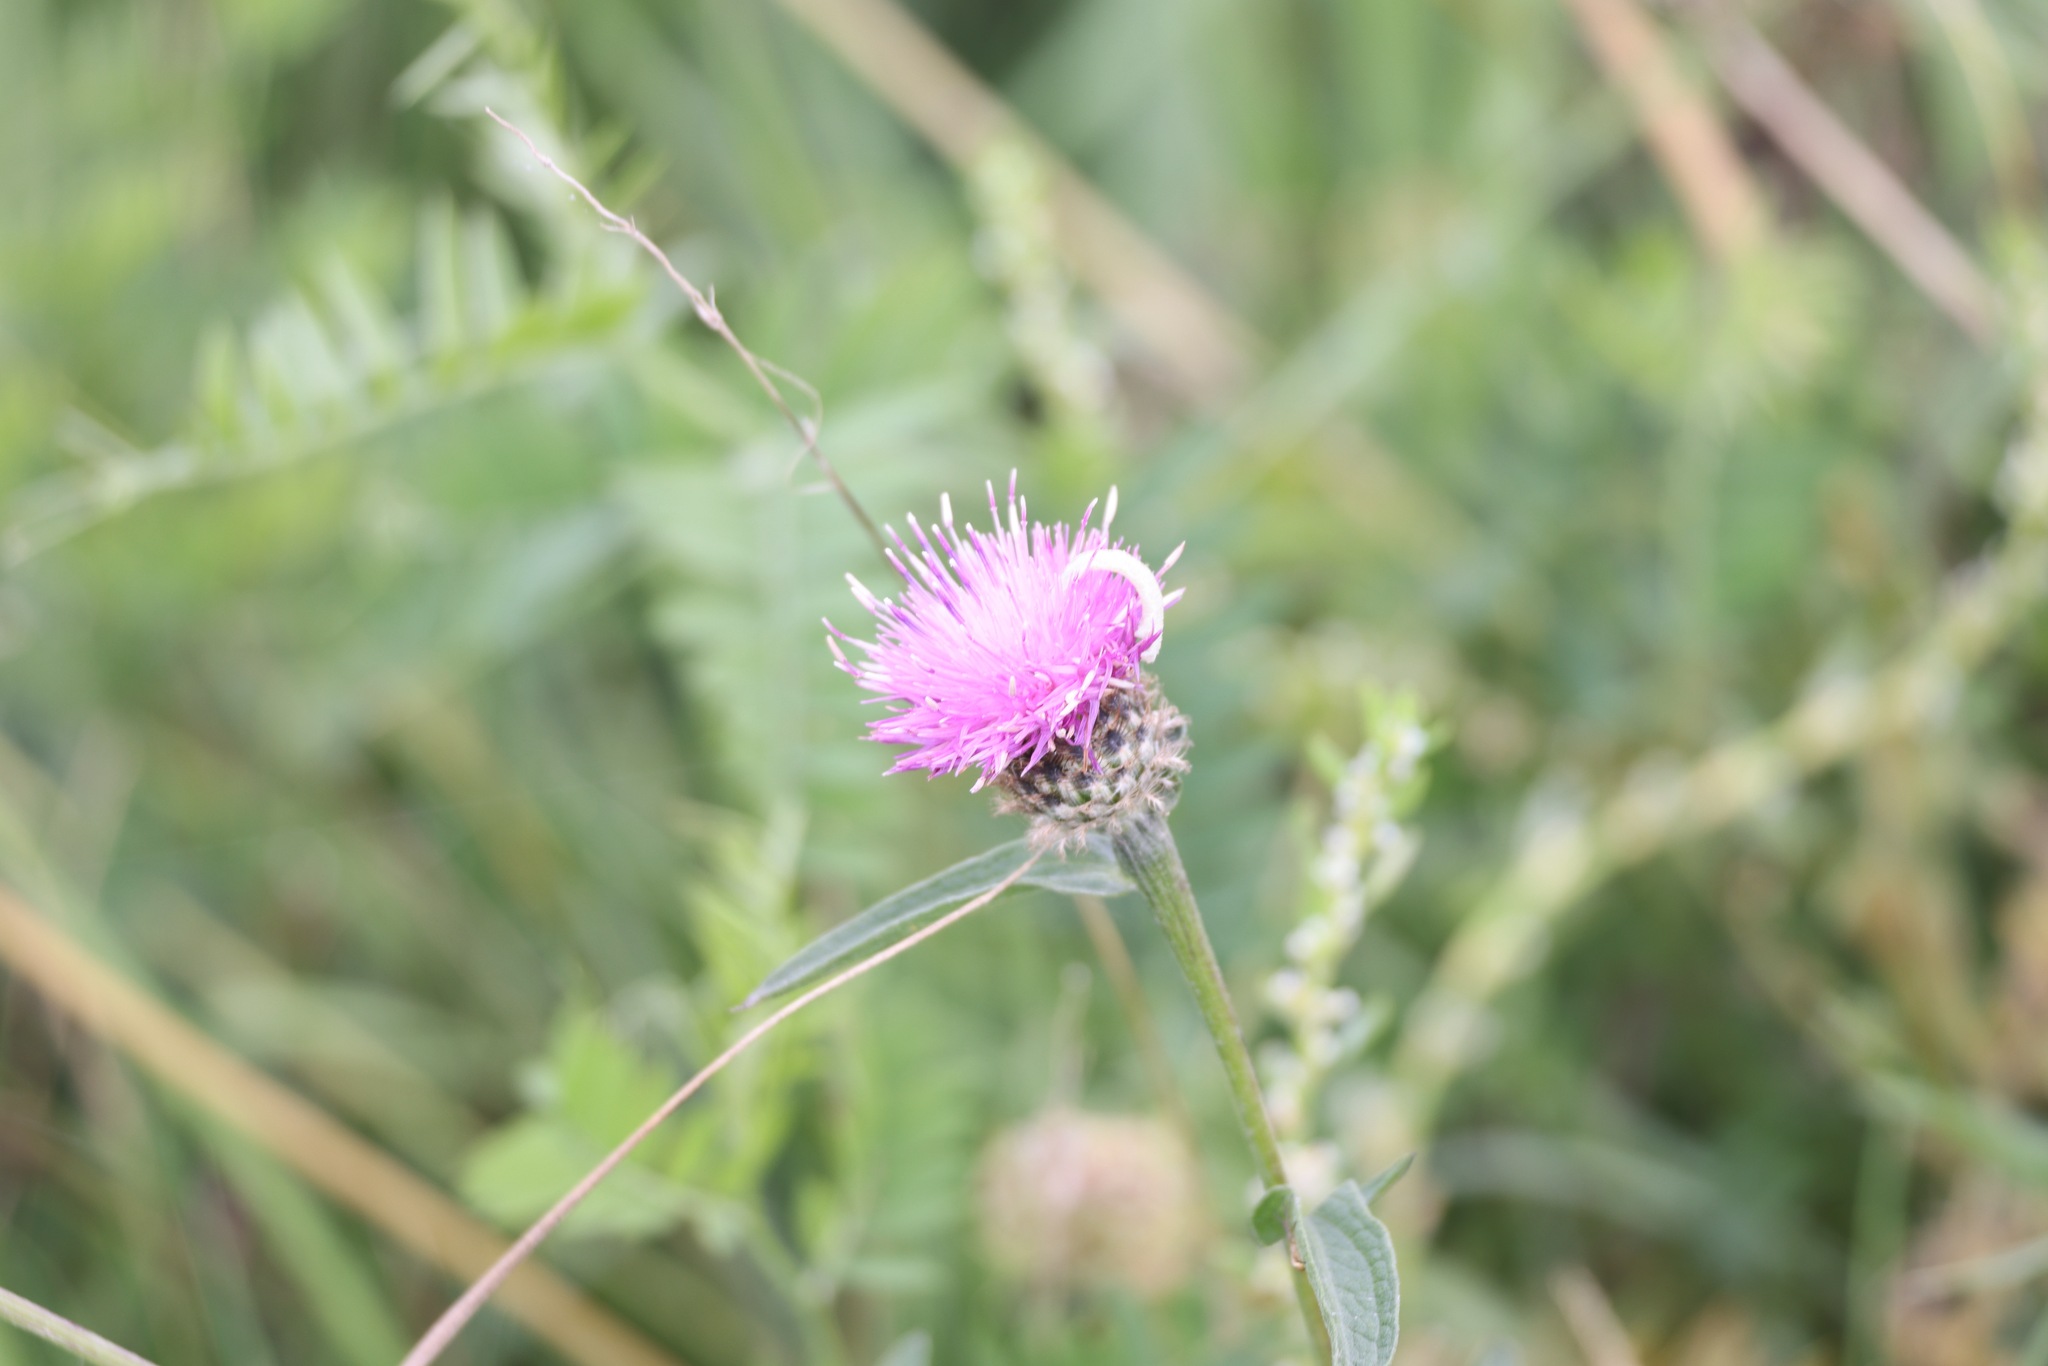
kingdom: Plantae
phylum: Tracheophyta
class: Magnoliopsida
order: Asterales
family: Asteraceae
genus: Centaurea
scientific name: Centaurea nigra
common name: Lesser knapweed
